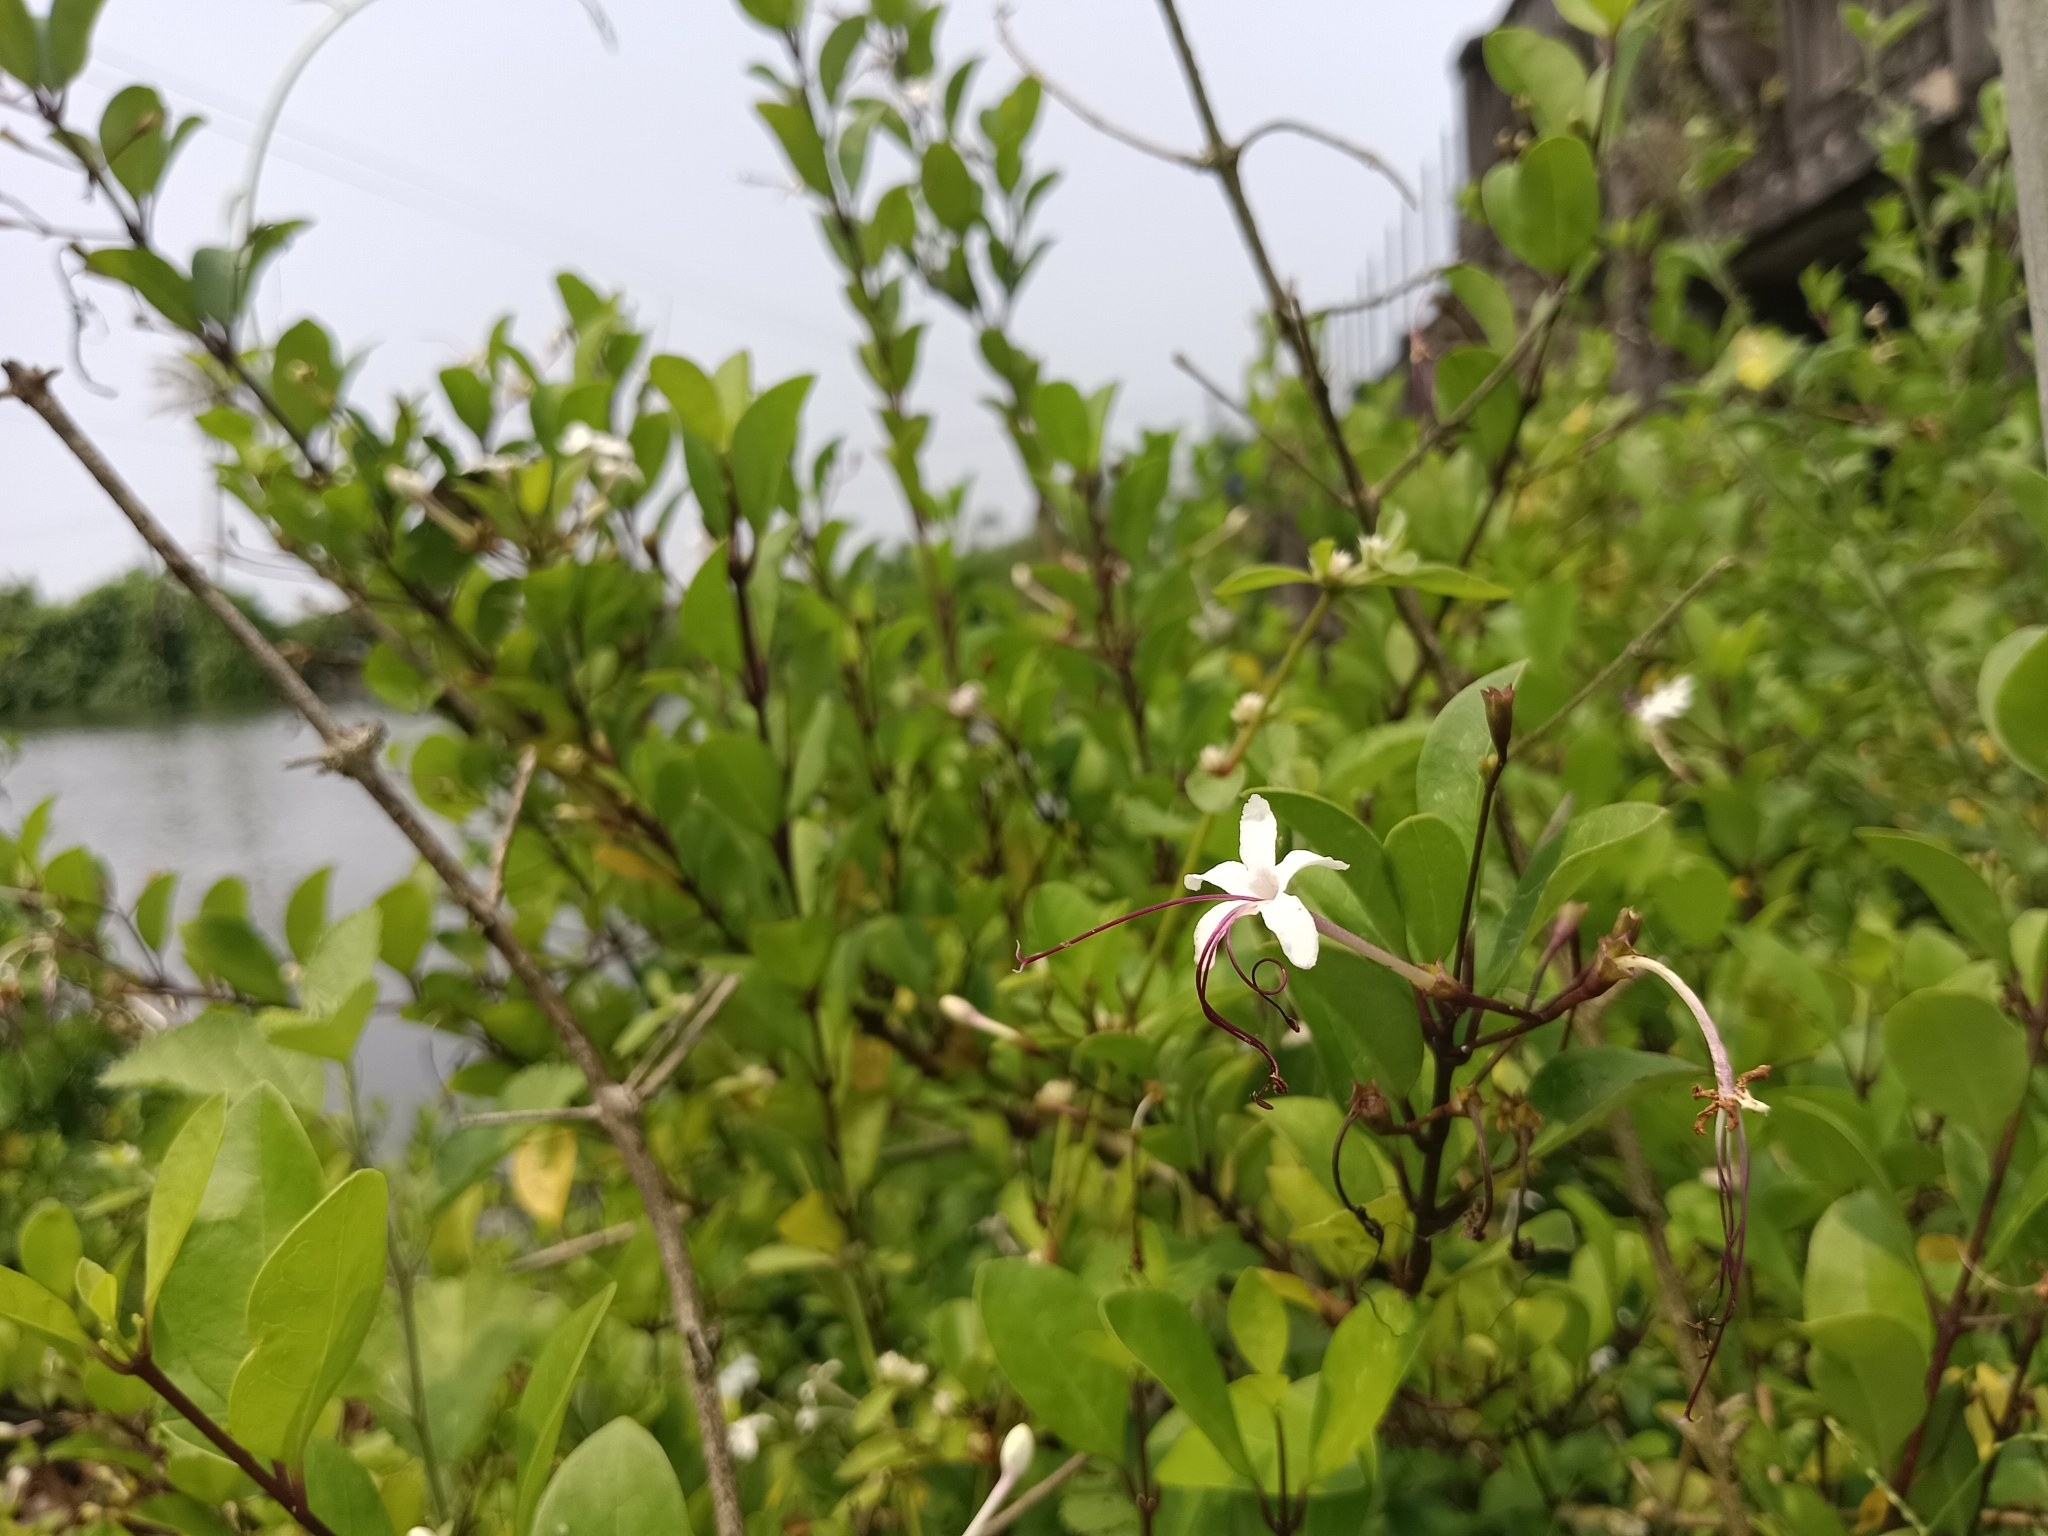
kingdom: Plantae
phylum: Tracheophyta
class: Magnoliopsida
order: Lamiales
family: Lamiaceae
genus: Volkameria
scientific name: Volkameria inermis
